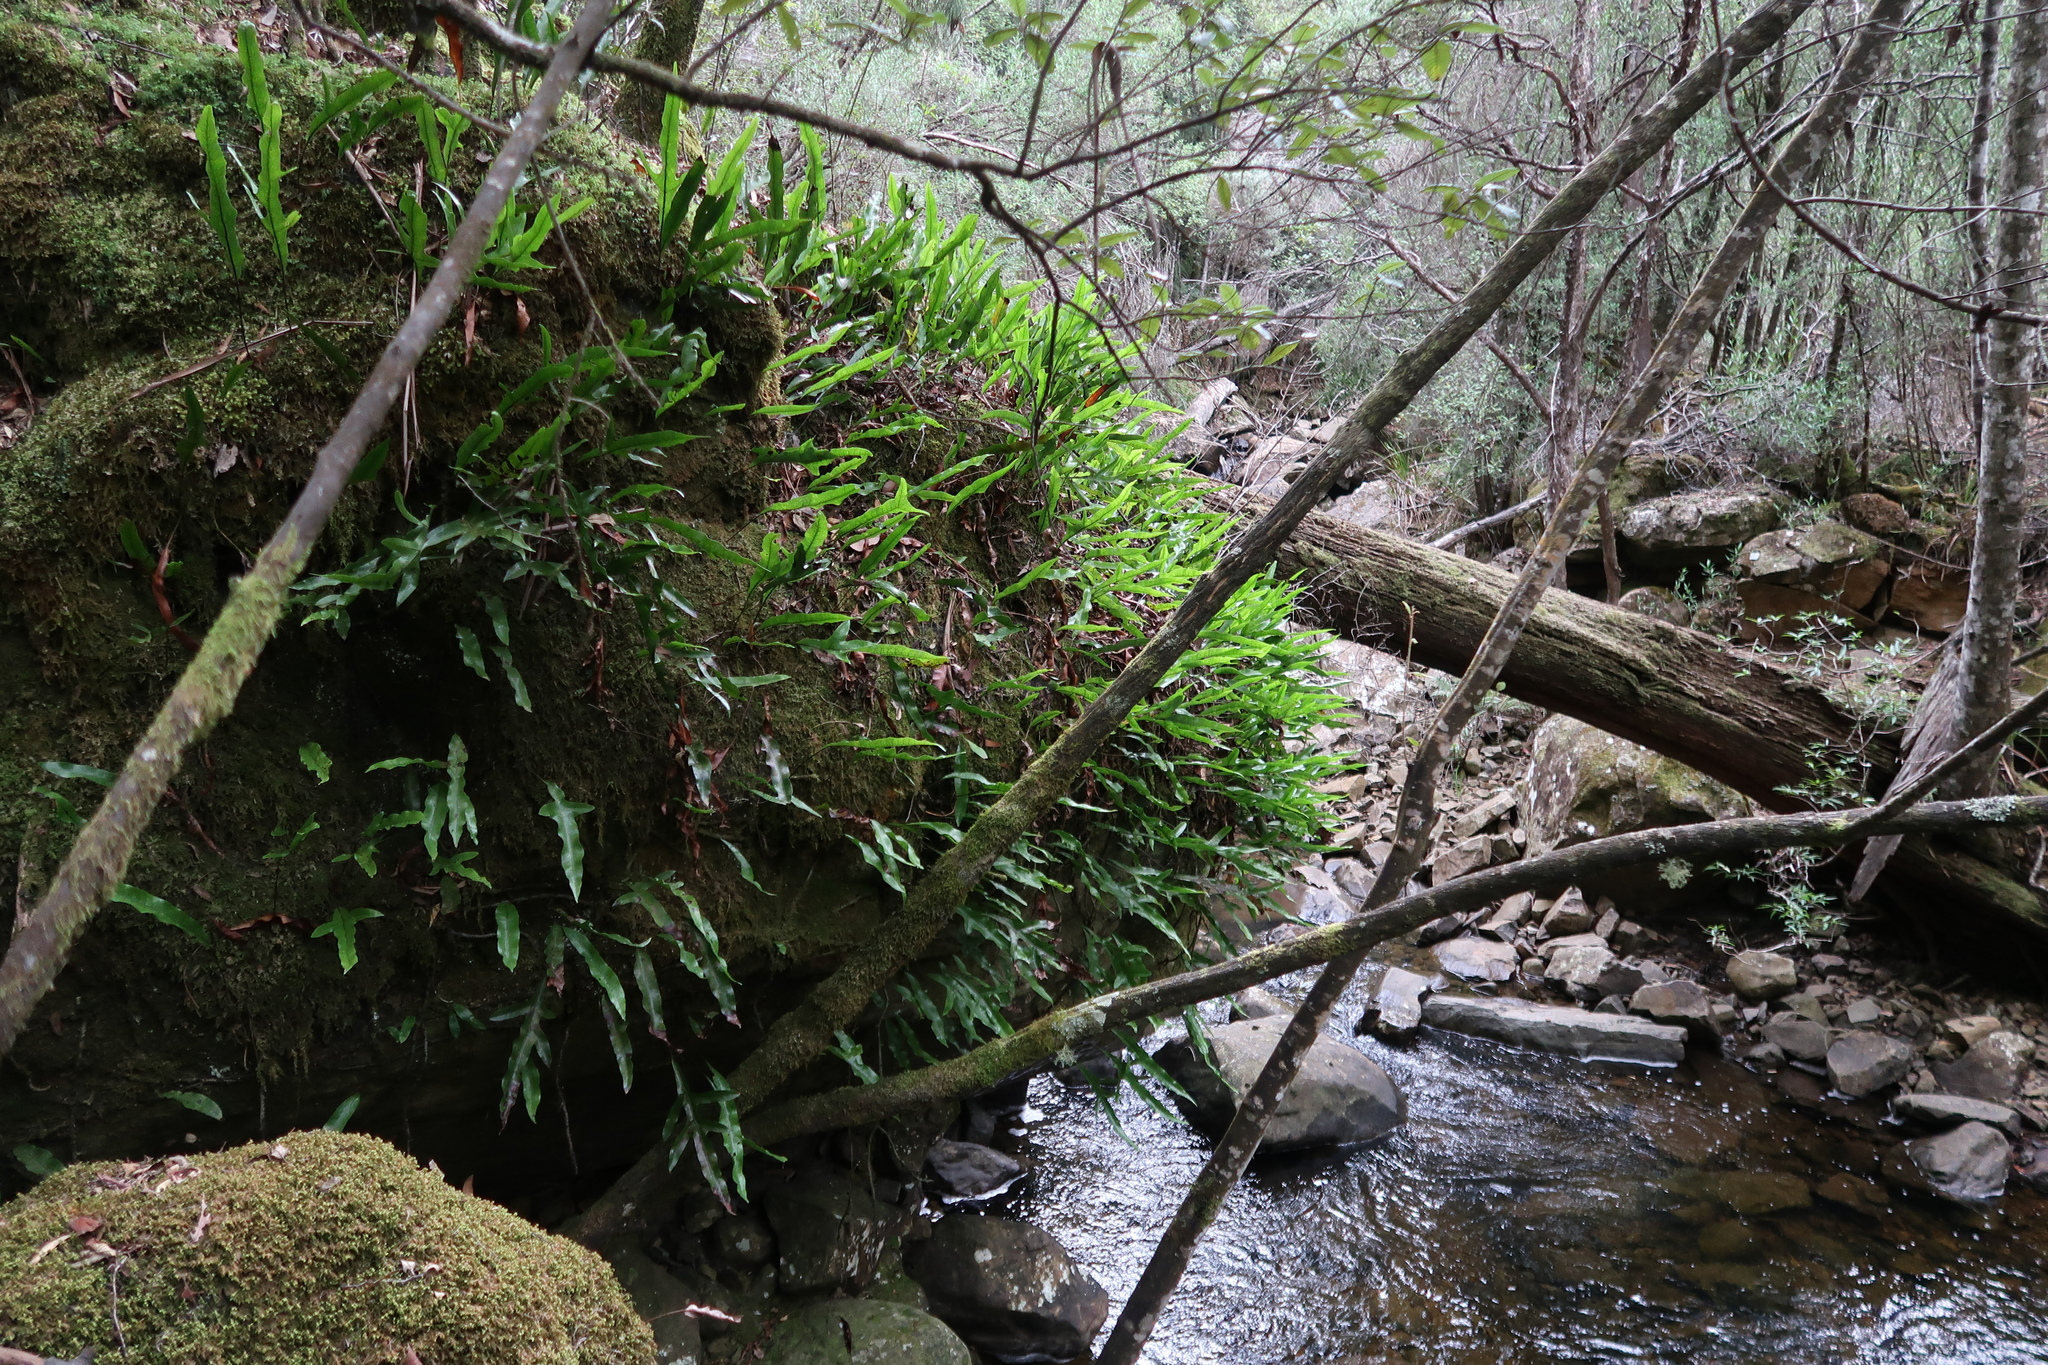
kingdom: Plantae
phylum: Tracheophyta
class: Polypodiopsida
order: Polypodiales
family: Polypodiaceae
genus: Lecanopteris
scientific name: Lecanopteris pustulata
